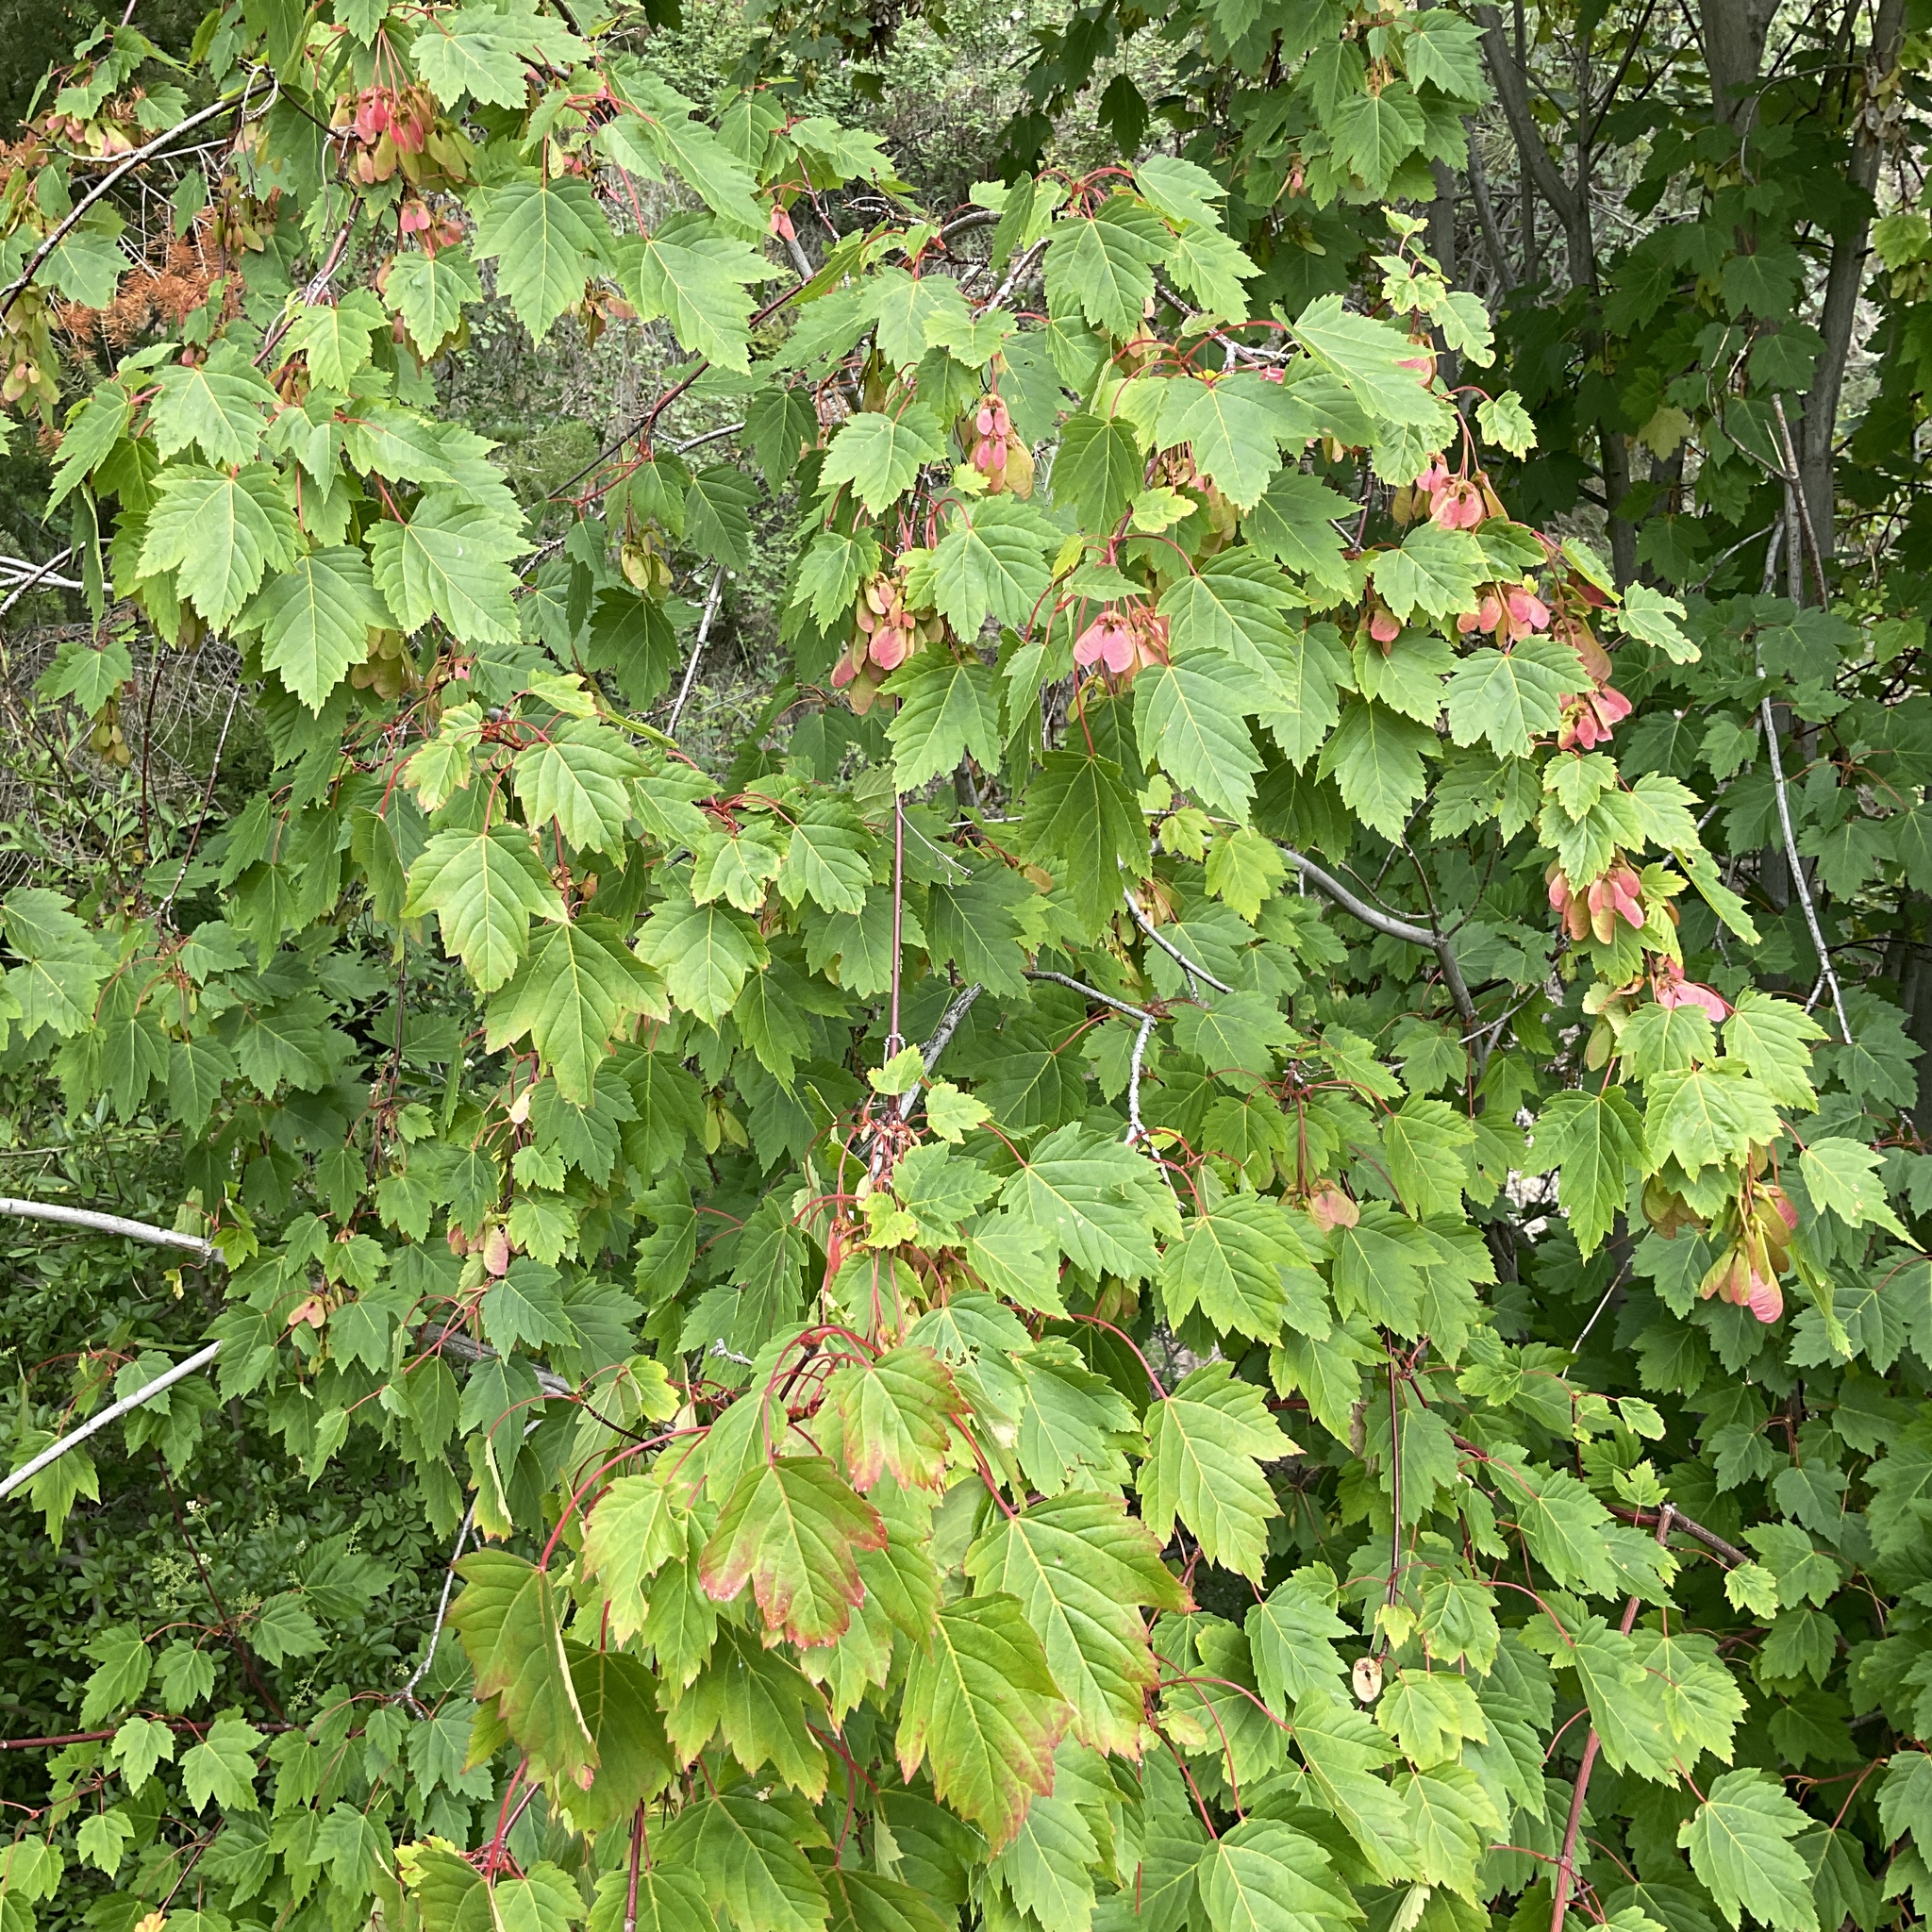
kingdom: Plantae
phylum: Tracheophyta
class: Magnoliopsida
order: Sapindales
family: Sapindaceae
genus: Acer
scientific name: Acer glabrum
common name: Rocky mountain maple
